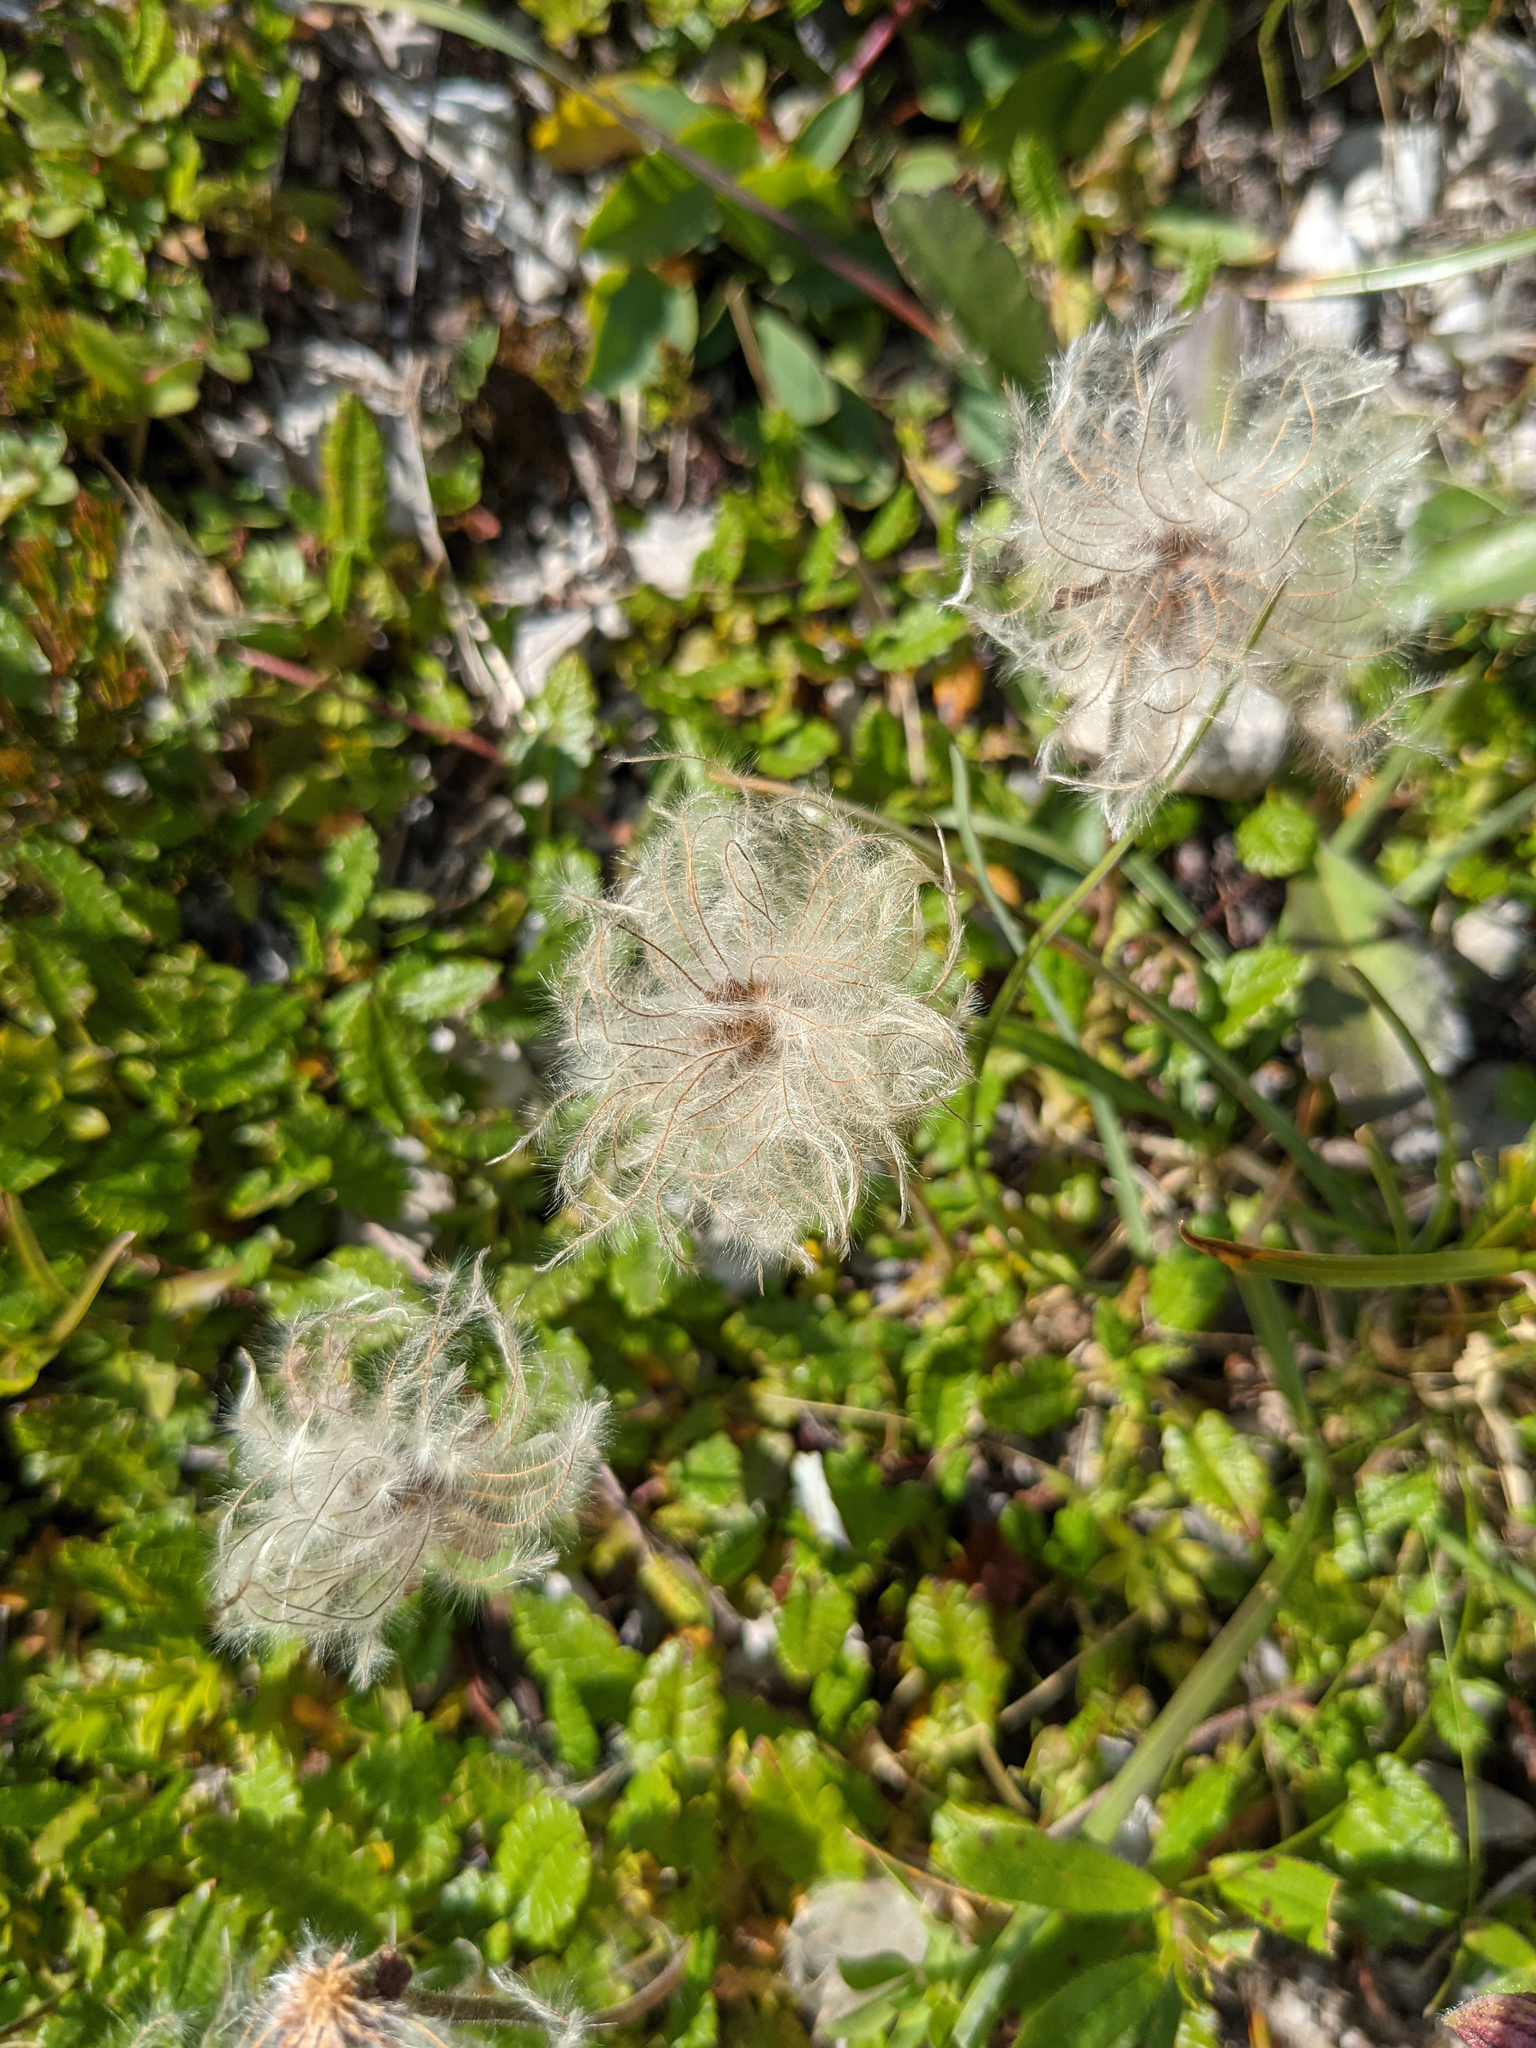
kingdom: Plantae
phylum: Tracheophyta
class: Magnoliopsida
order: Rosales
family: Rosaceae
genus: Dryas
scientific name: Dryas octopetala
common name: Eight-petal mountain-avens
